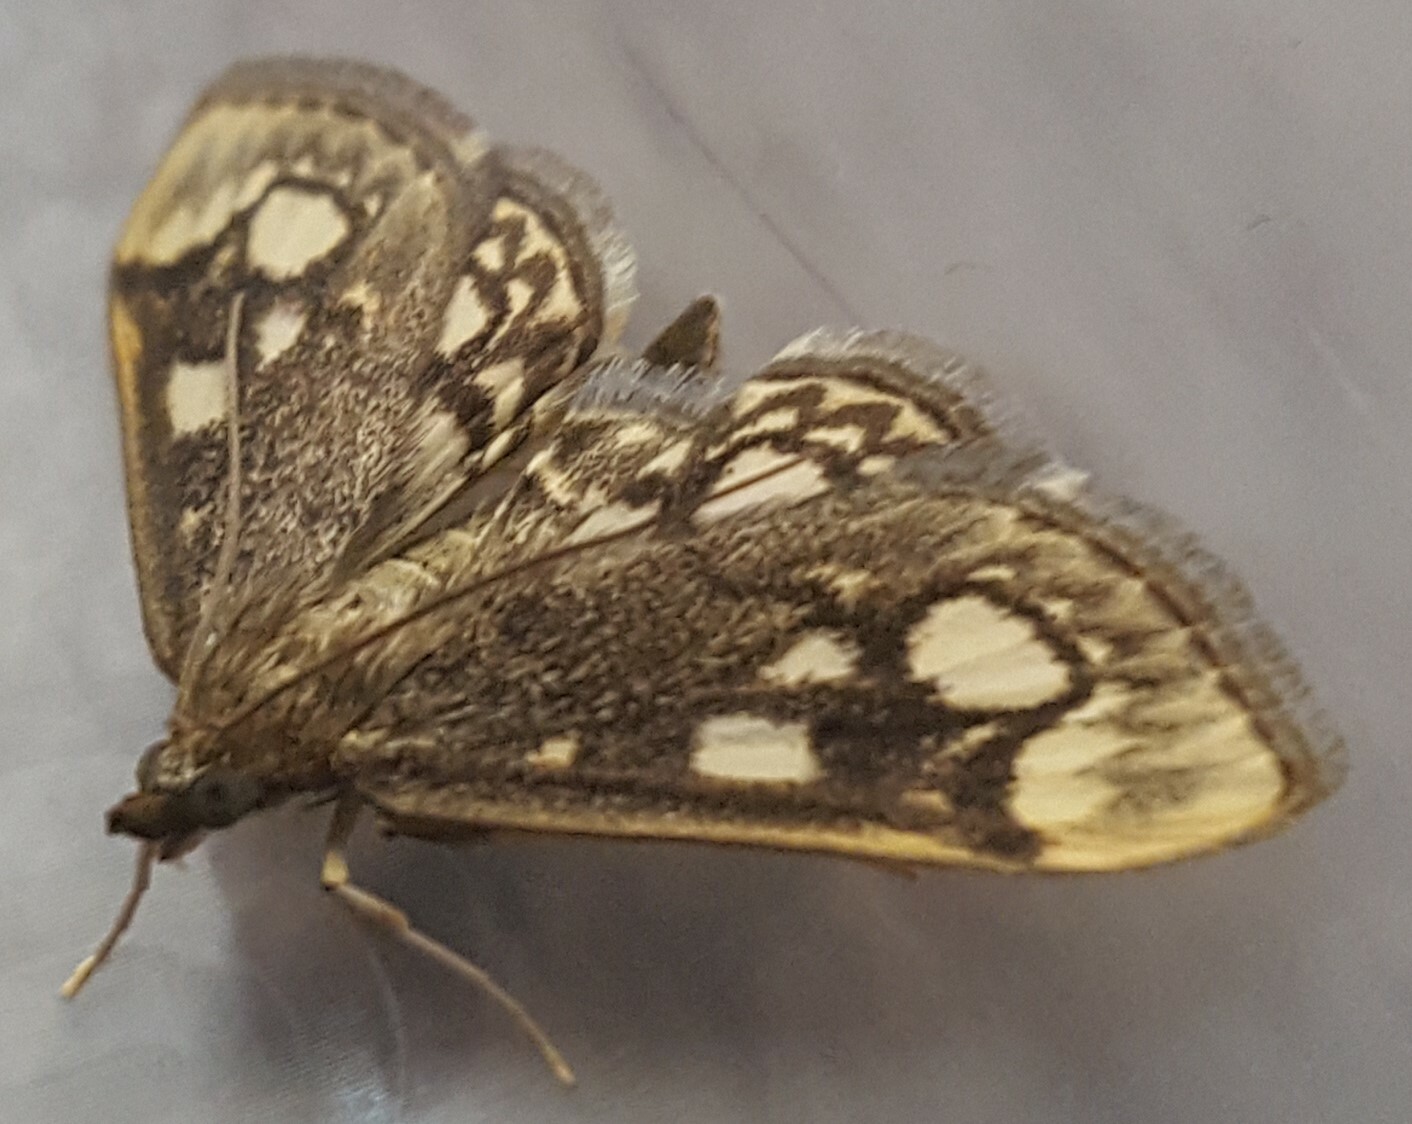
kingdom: Animalia
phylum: Arthropoda
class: Insecta
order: Lepidoptera
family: Crambidae
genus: Anania
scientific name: Anania coronata
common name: Elder pearl
